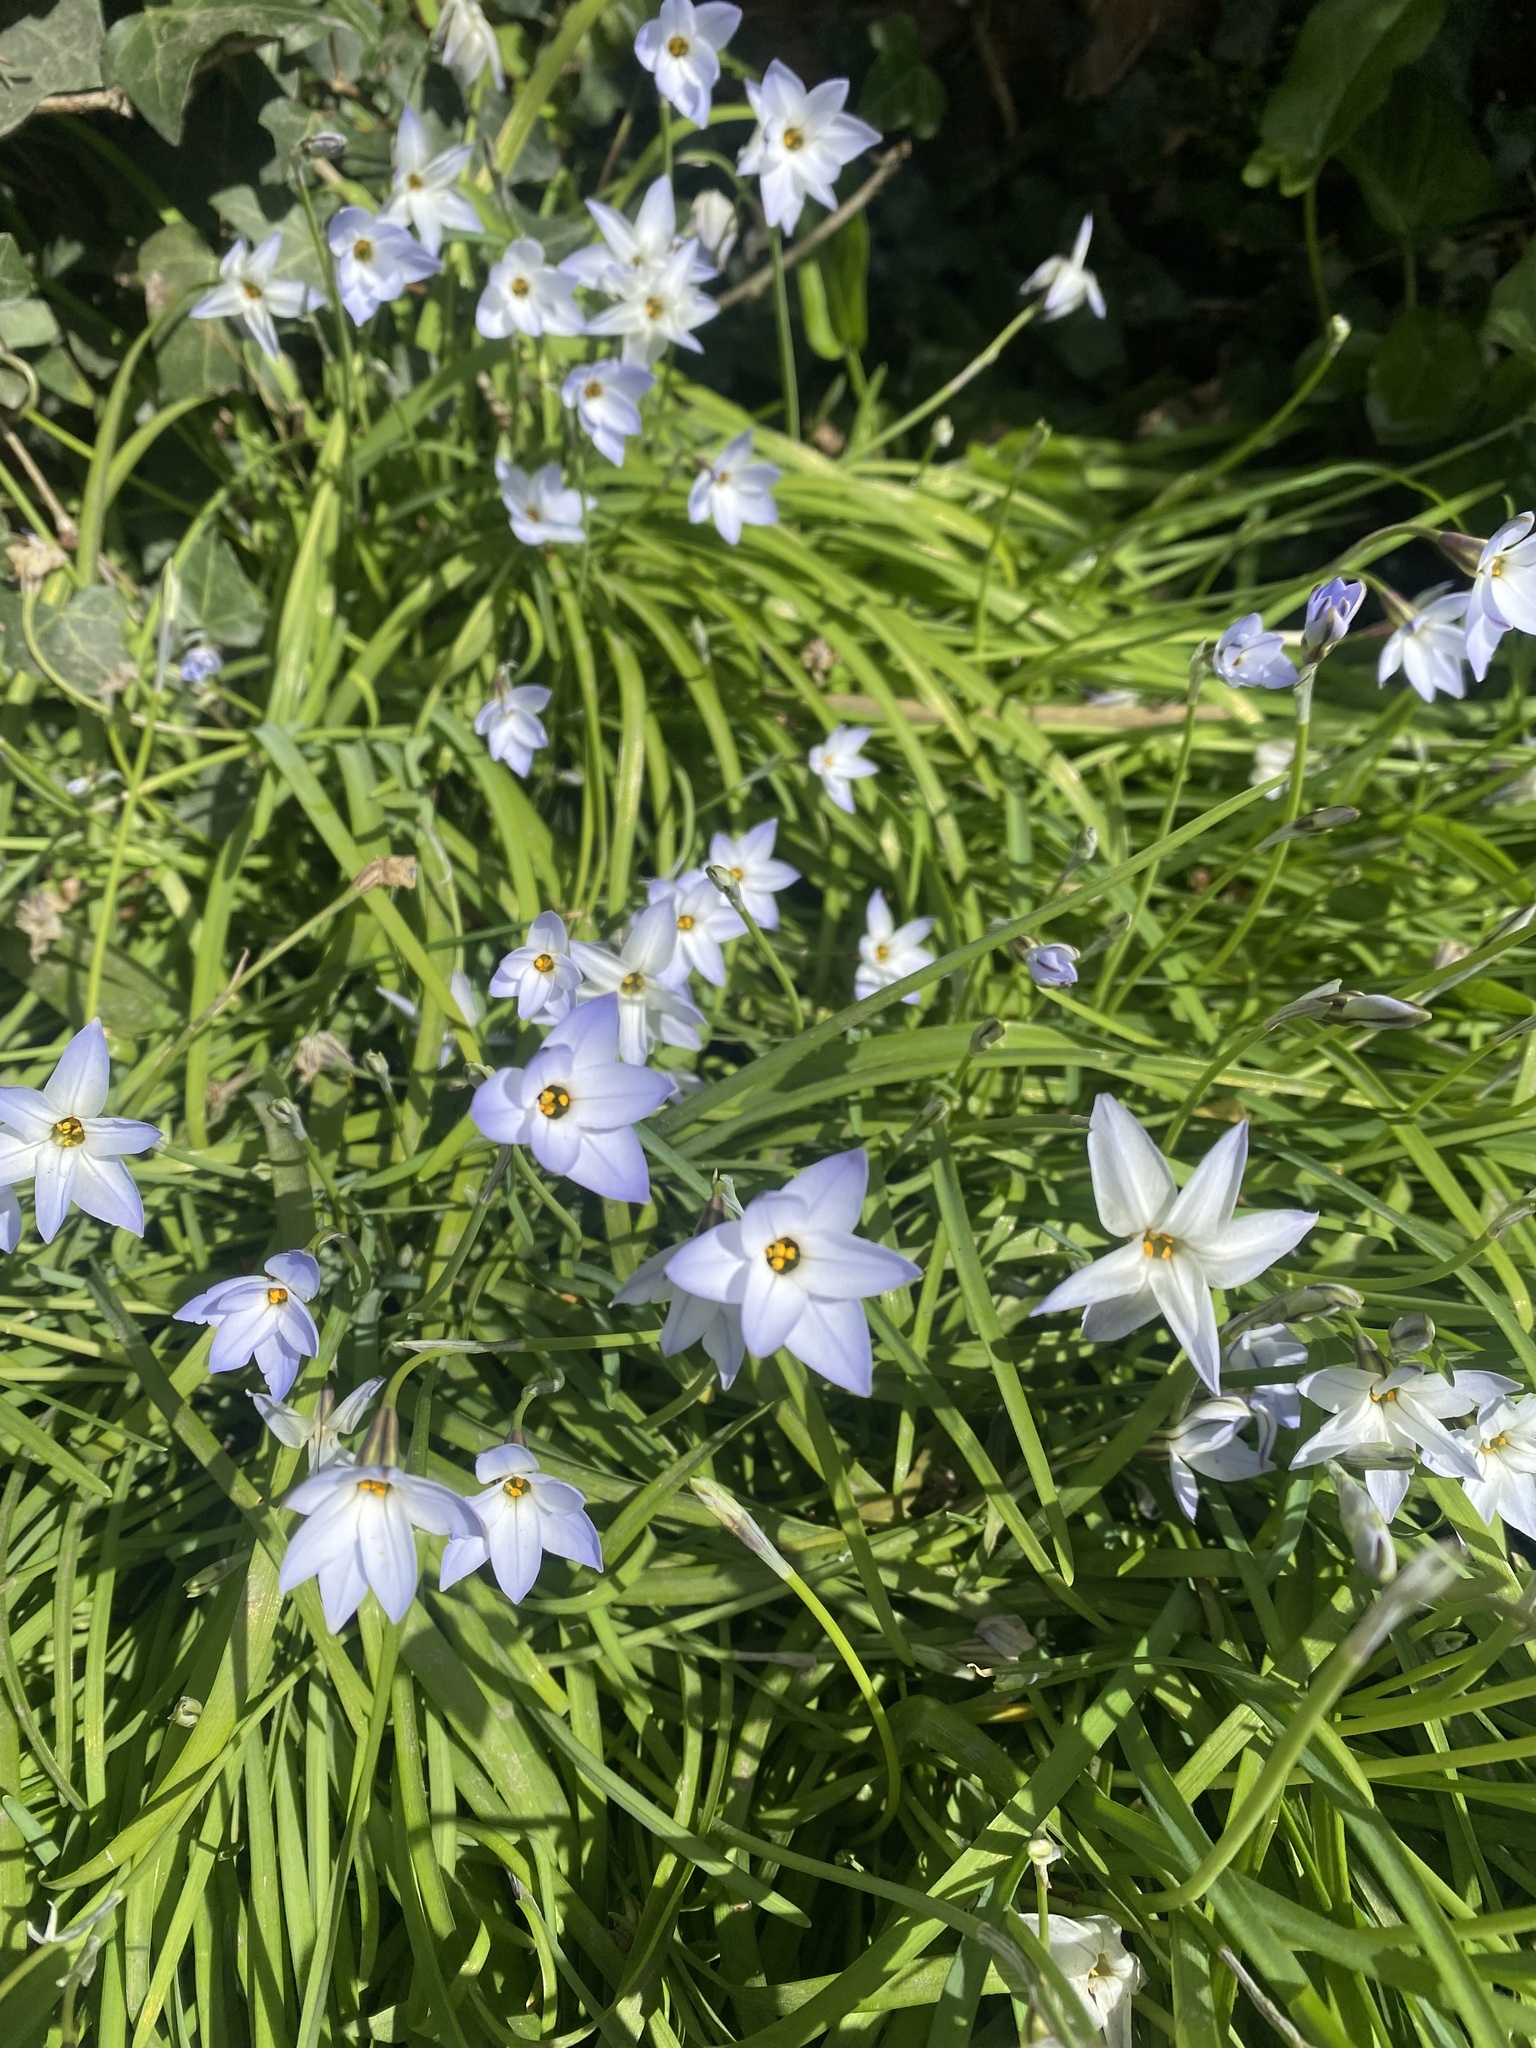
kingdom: Plantae
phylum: Tracheophyta
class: Liliopsida
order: Asparagales
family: Amaryllidaceae
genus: Ipheion
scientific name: Ipheion uniflorum
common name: Spring starflower
